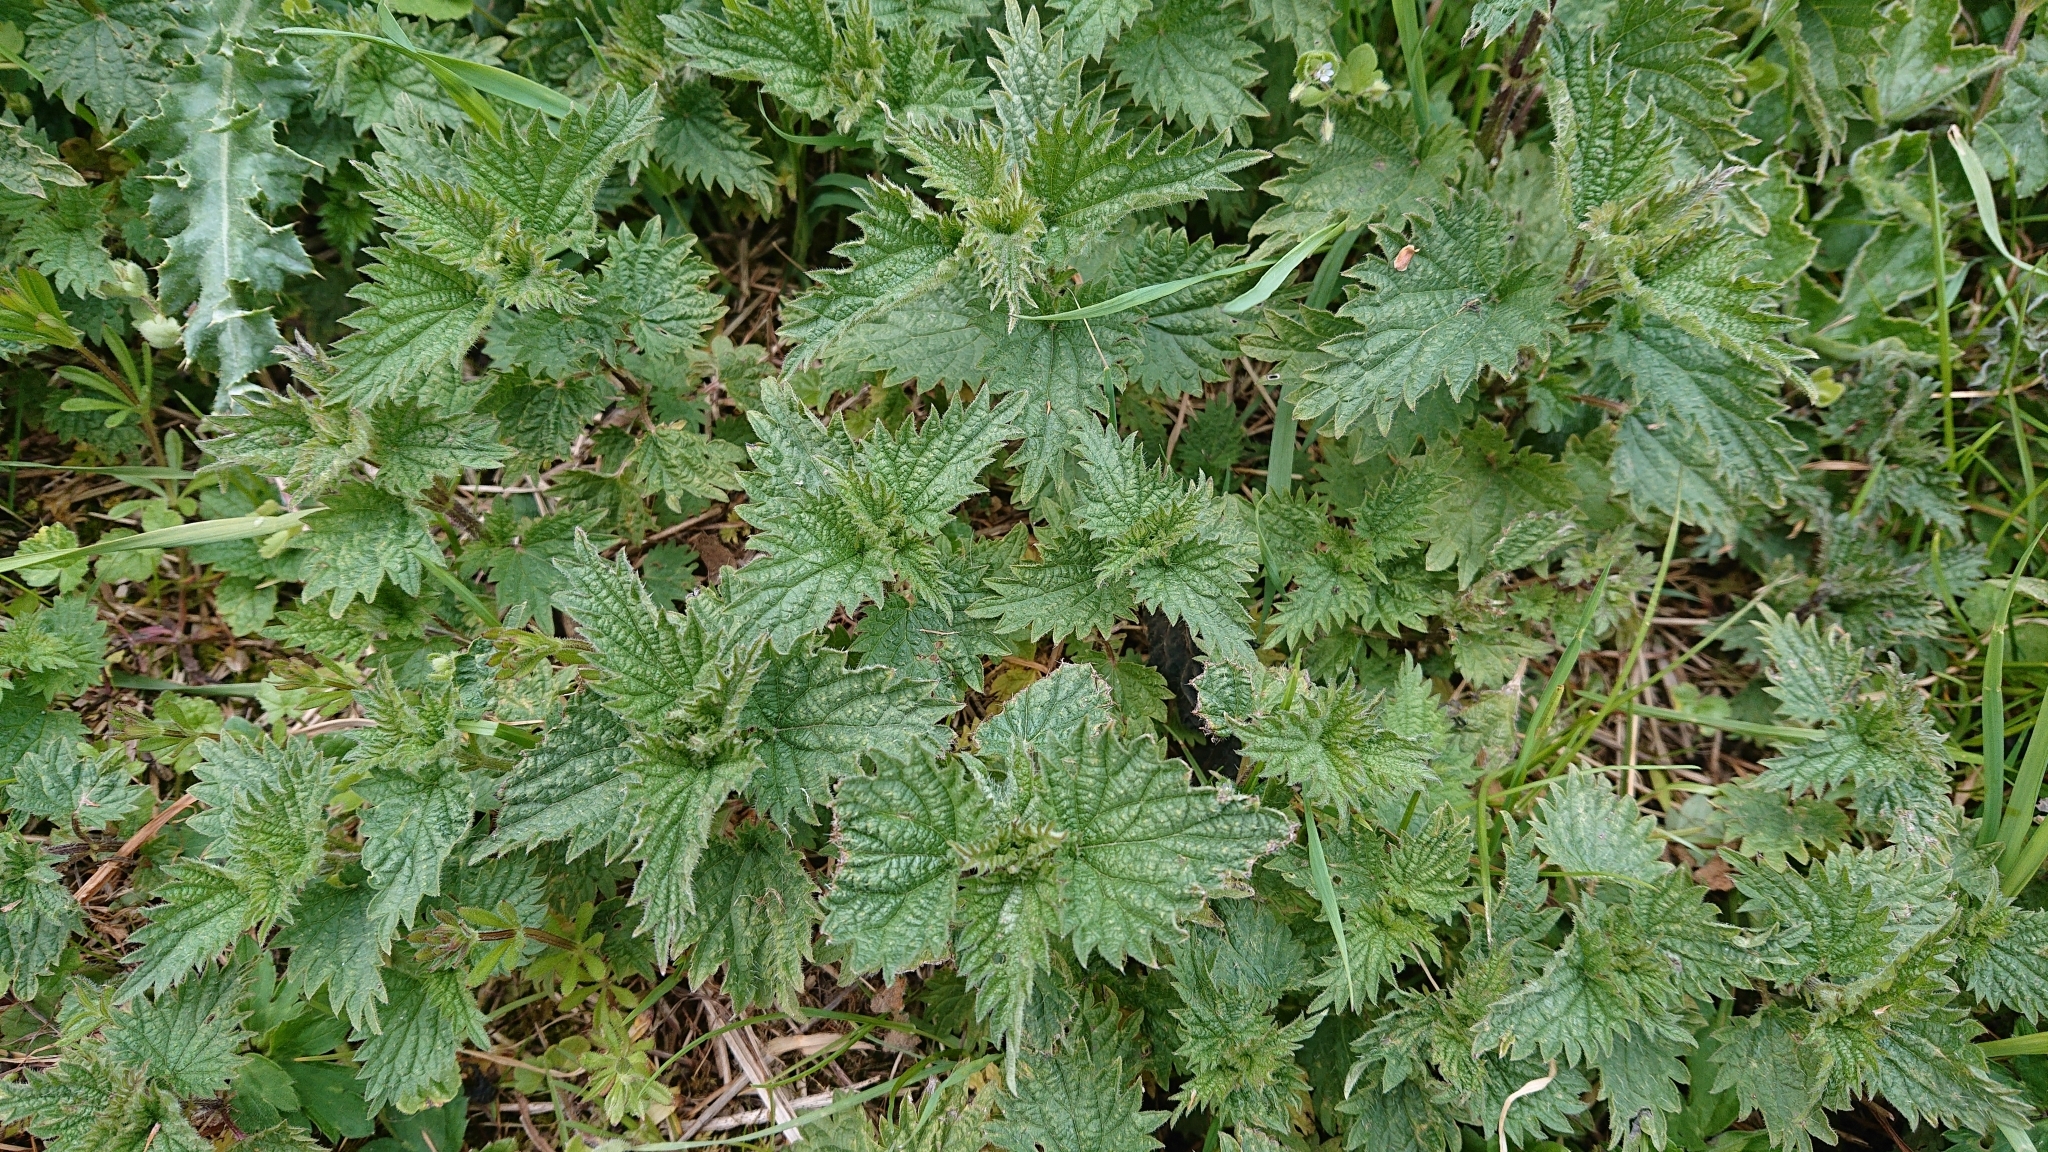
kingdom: Plantae
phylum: Tracheophyta
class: Magnoliopsida
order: Rosales
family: Urticaceae
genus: Urtica
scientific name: Urtica dioica
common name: Common nettle
